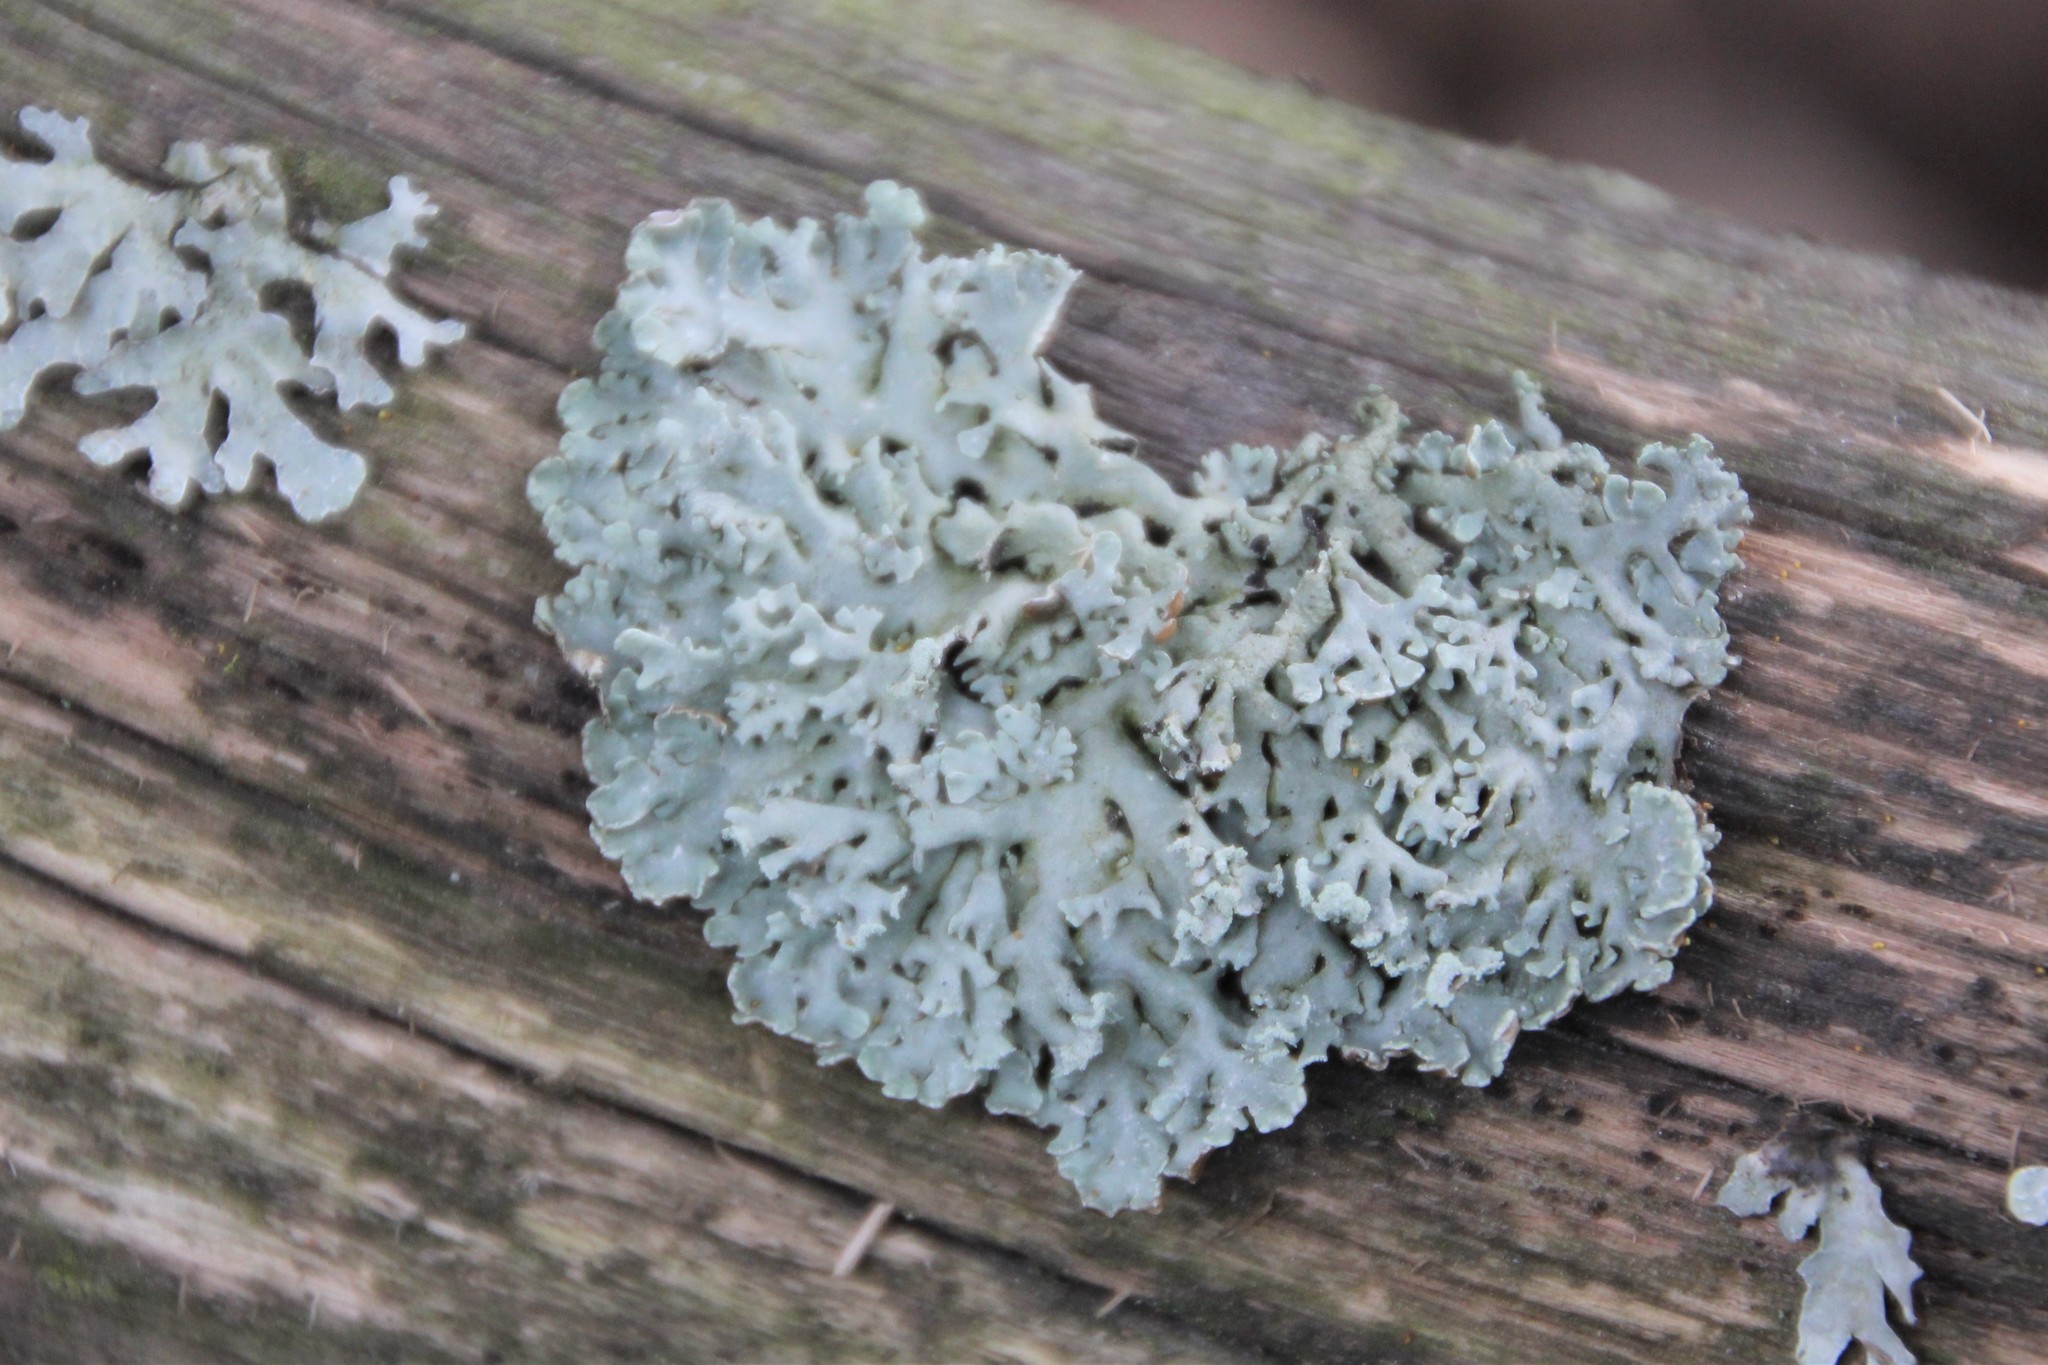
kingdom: Fungi
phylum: Ascomycota
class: Lecanoromycetes
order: Lecanorales
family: Parmeliaceae
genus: Hypogymnia
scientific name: Hypogymnia physodes
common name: Dark crottle
